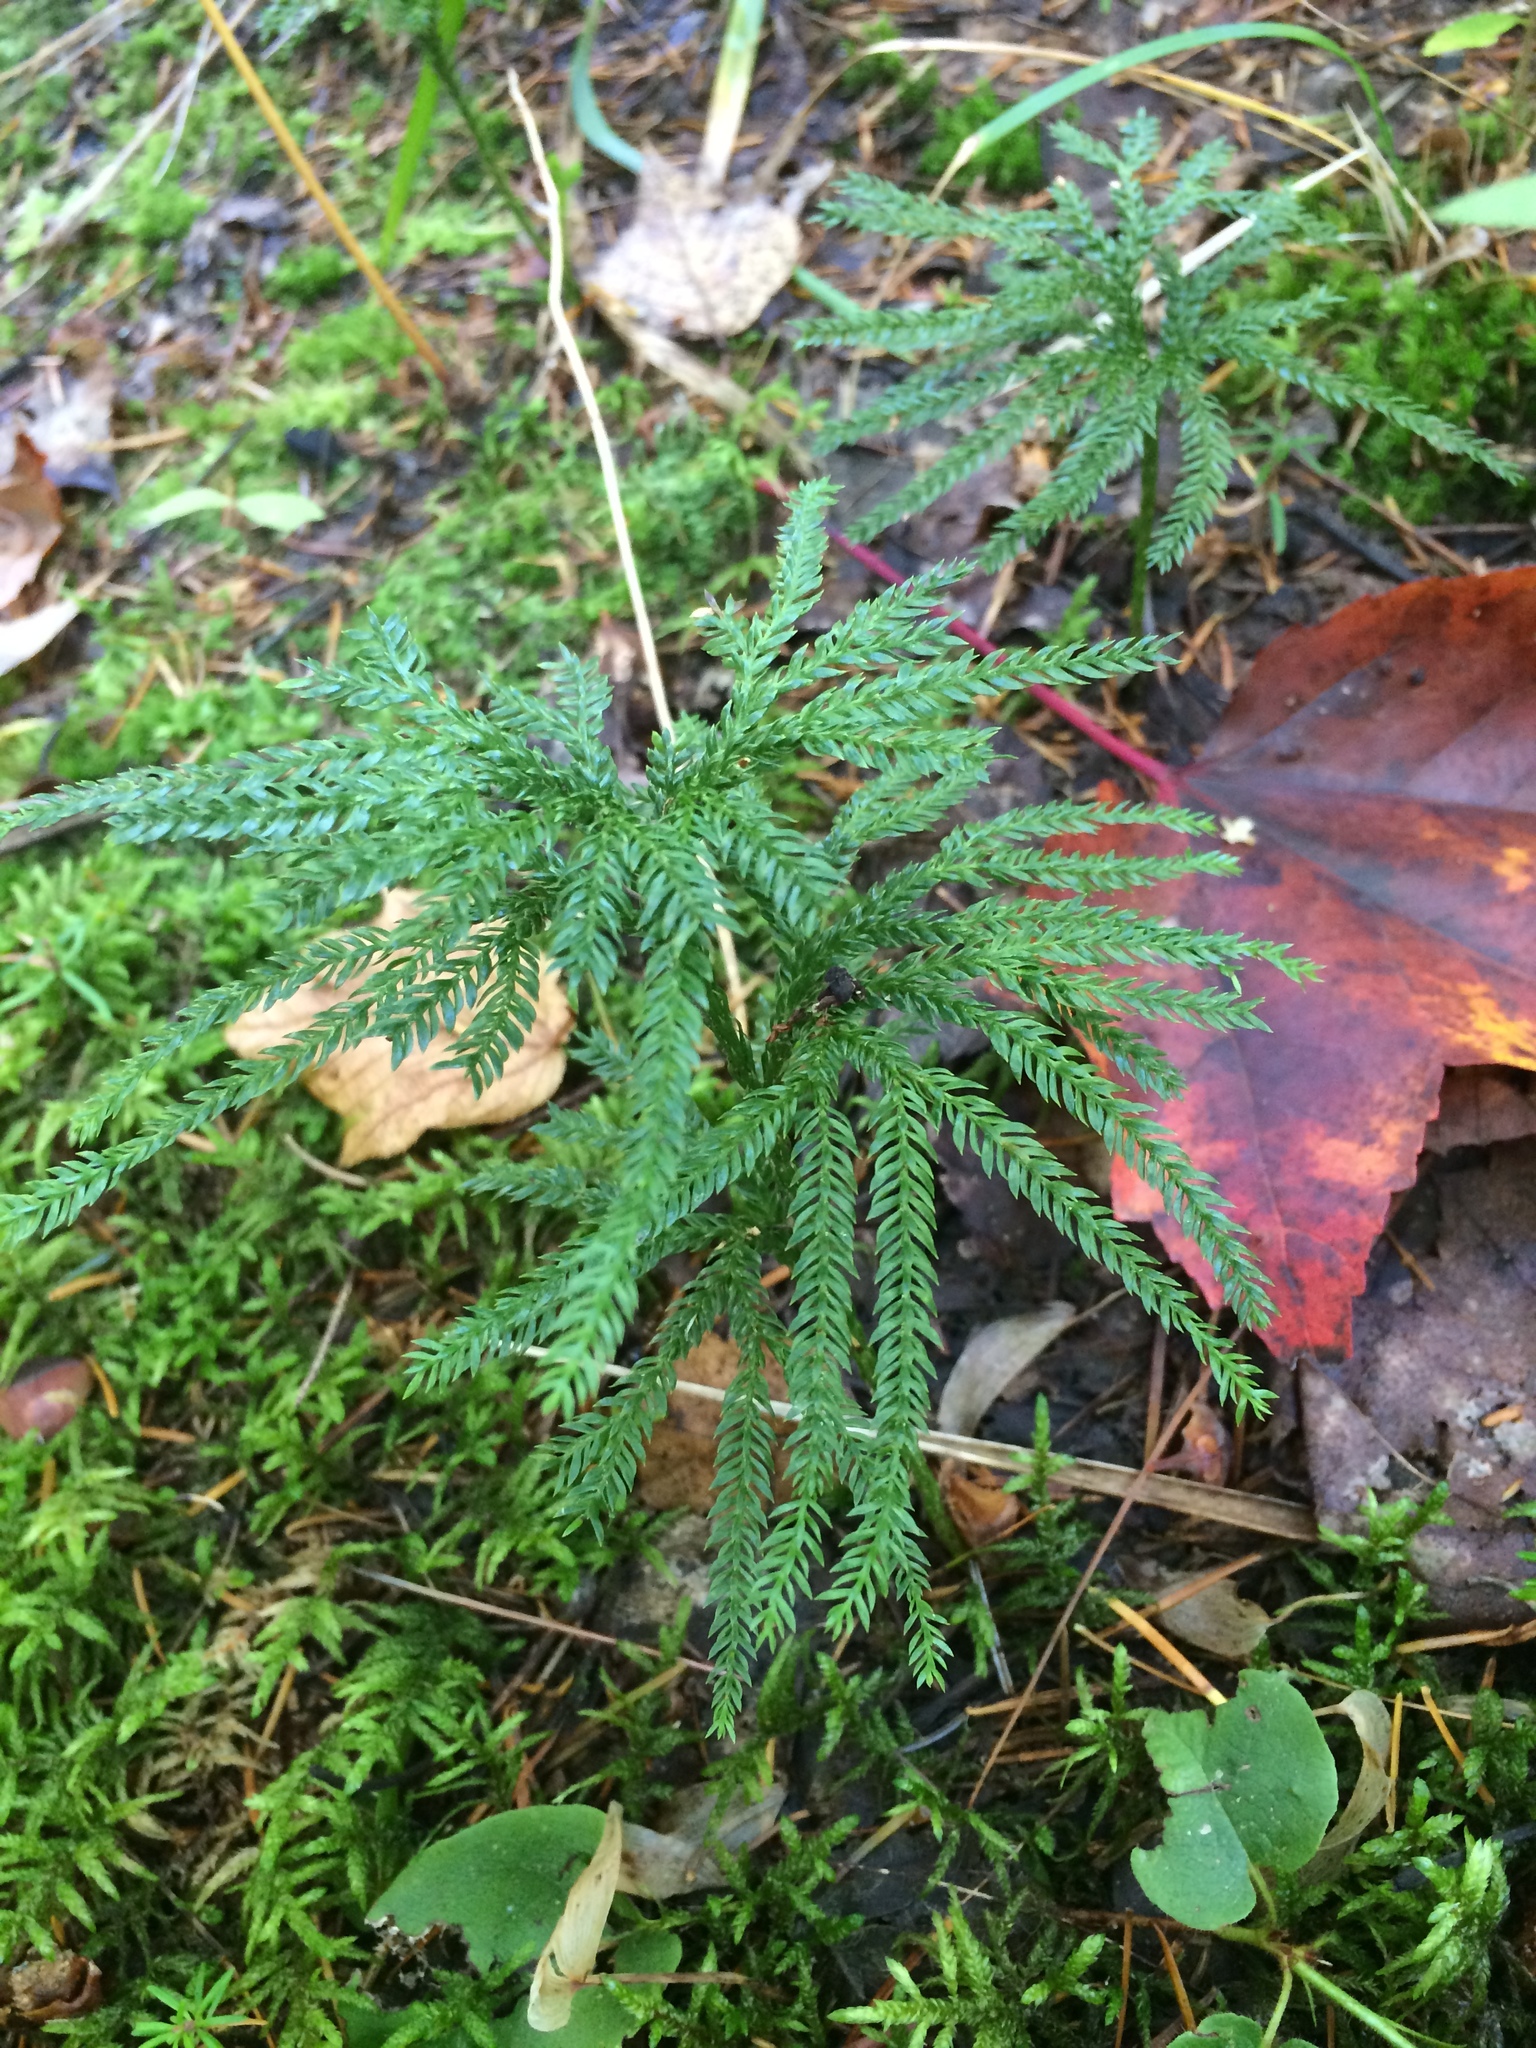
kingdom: Plantae
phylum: Tracheophyta
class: Lycopodiopsida
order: Lycopodiales
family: Lycopodiaceae
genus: Dendrolycopodium
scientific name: Dendrolycopodium obscurum
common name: Common ground-pine
